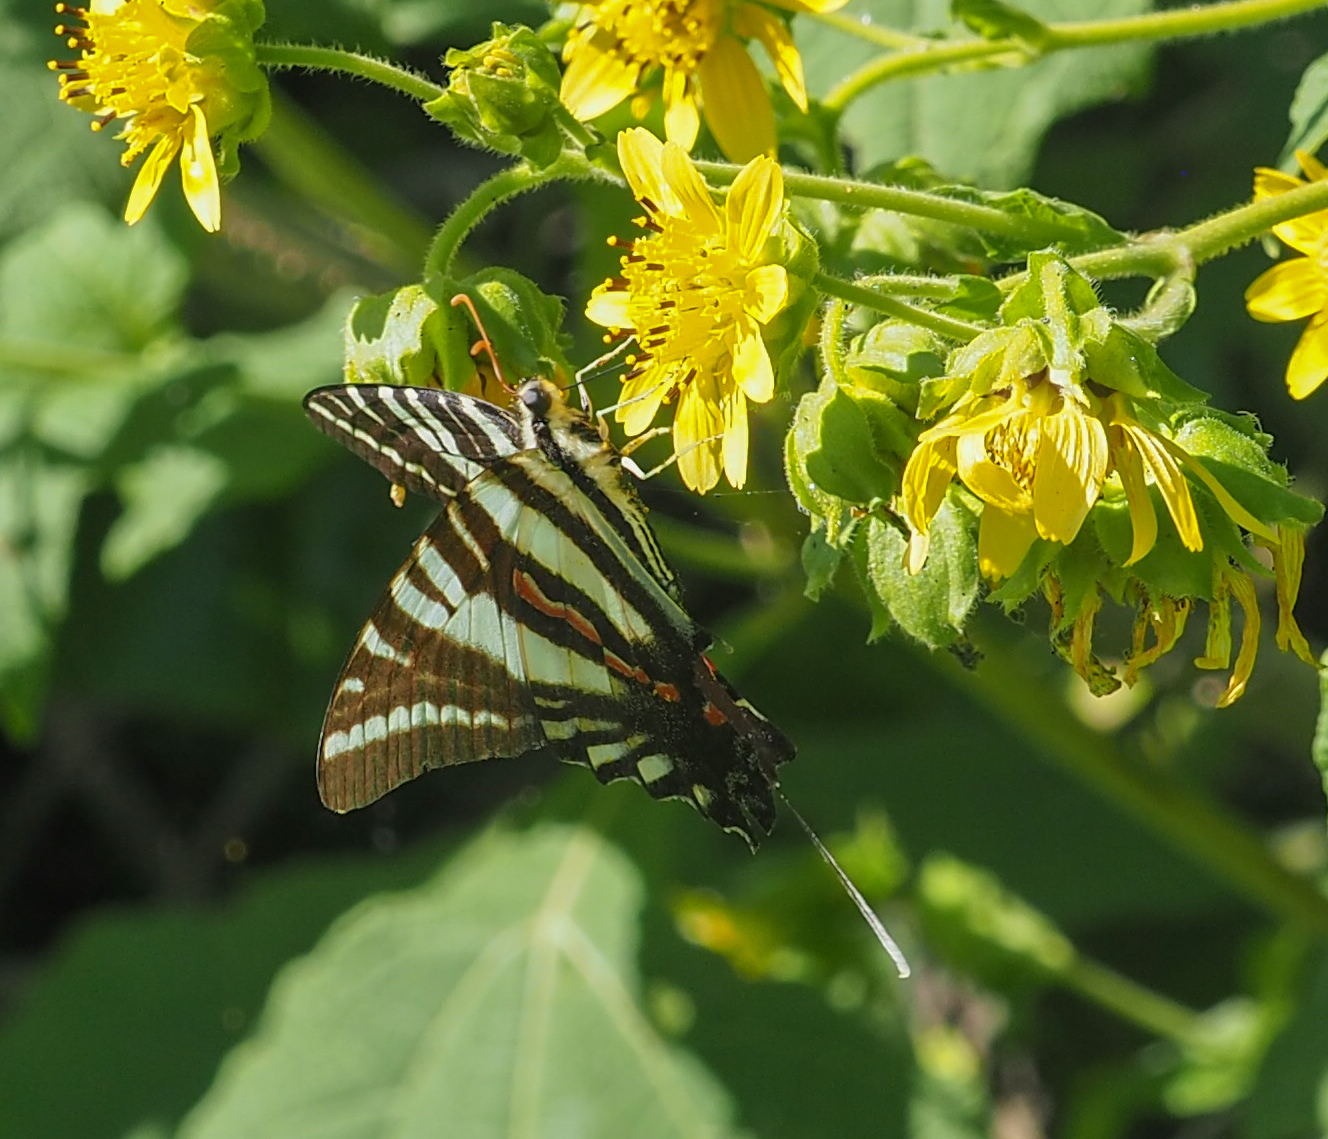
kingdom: Animalia
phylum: Arthropoda
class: Insecta
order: Lepidoptera
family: Papilionidae
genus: Protographium
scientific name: Protographium marcellus
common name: Zebra swallowtail
